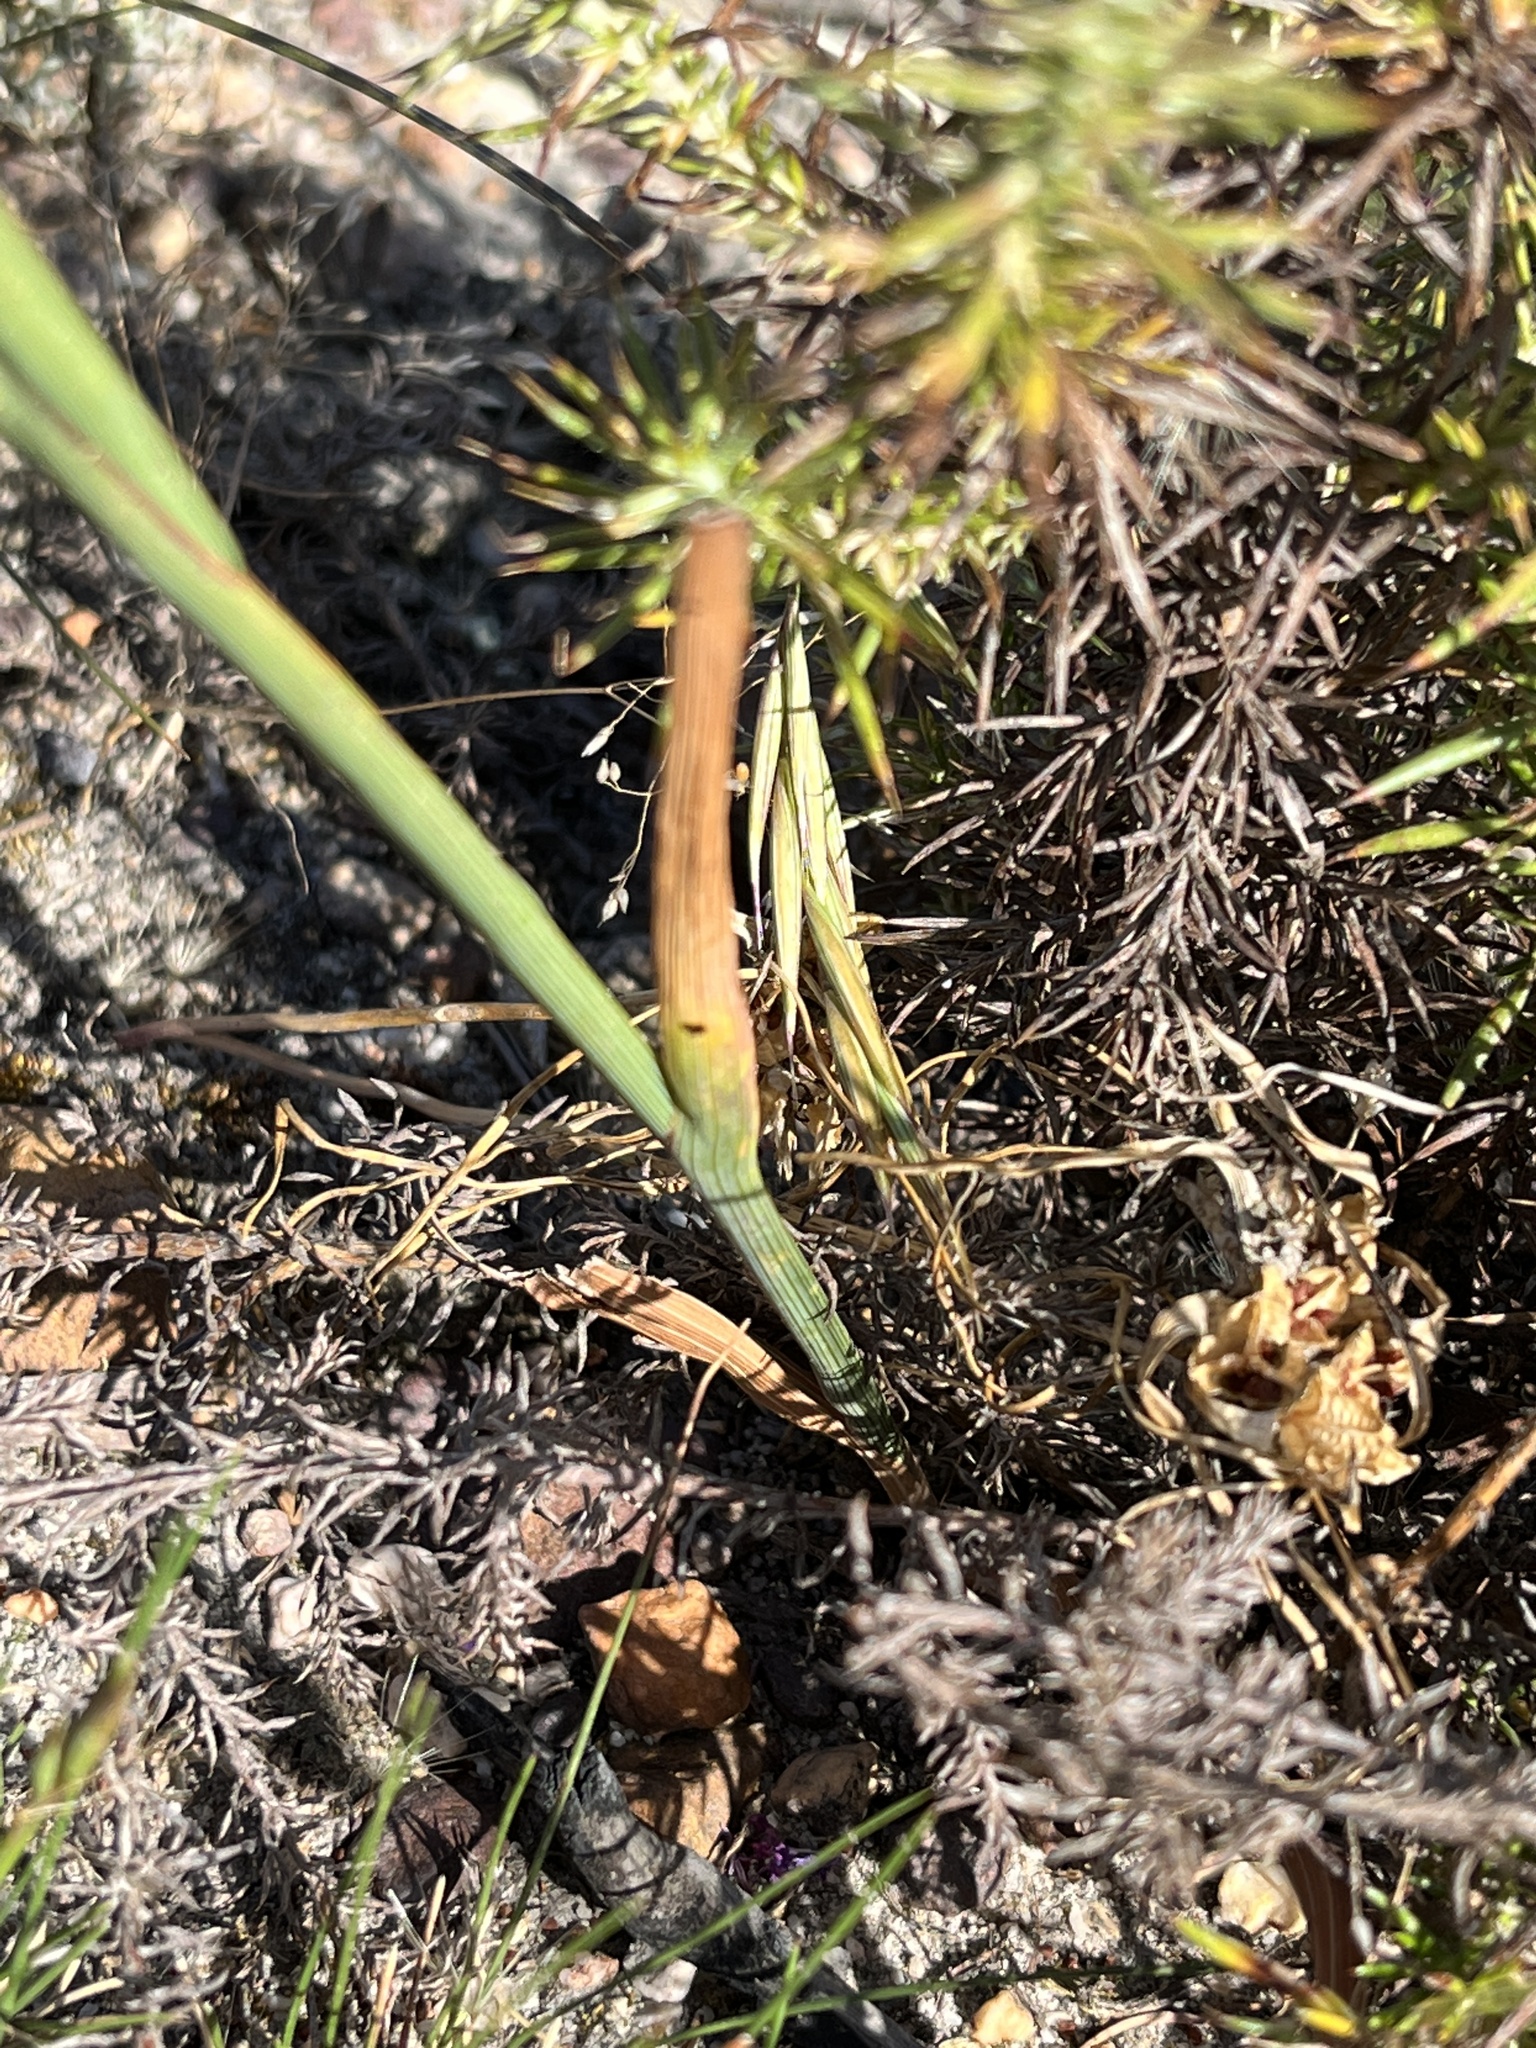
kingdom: Plantae
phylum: Tracheophyta
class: Liliopsida
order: Asparagales
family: Iridaceae
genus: Micranthus
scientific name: Micranthus tubulosus
